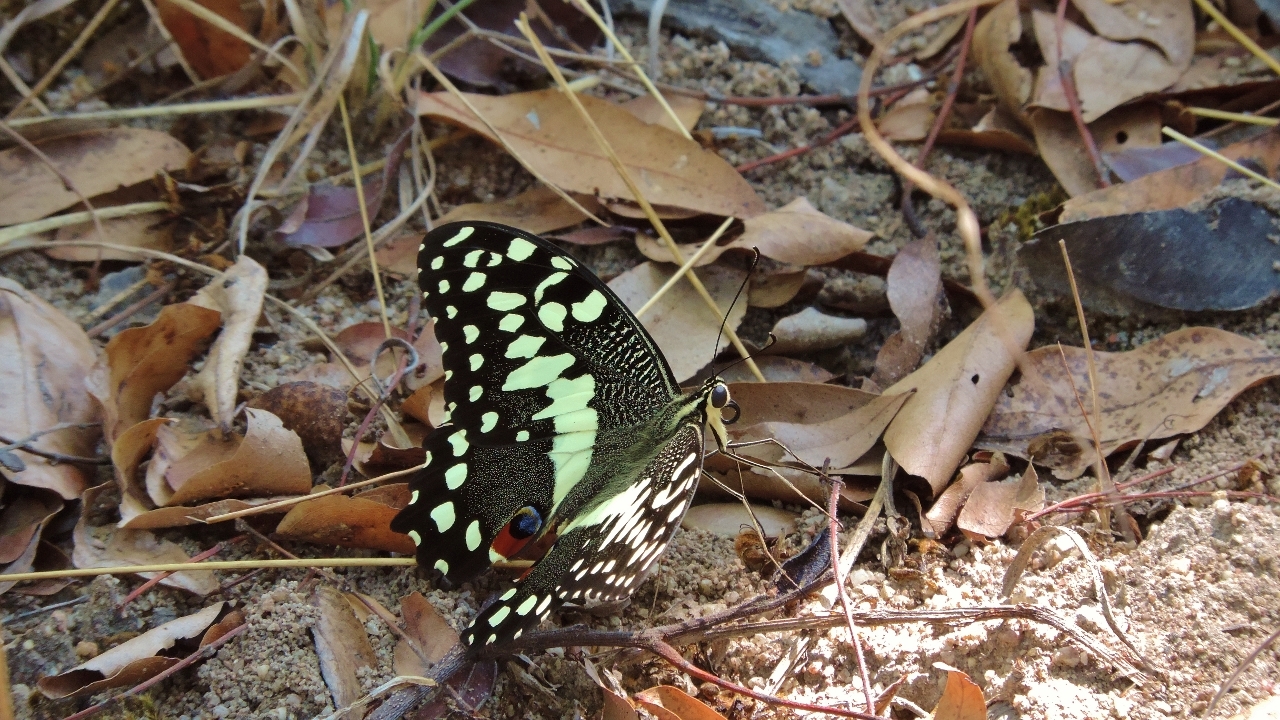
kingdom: Animalia
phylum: Arthropoda
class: Insecta
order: Lepidoptera
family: Papilionidae
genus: Papilio
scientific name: Papilio demodocus
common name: Christmas butterfly
